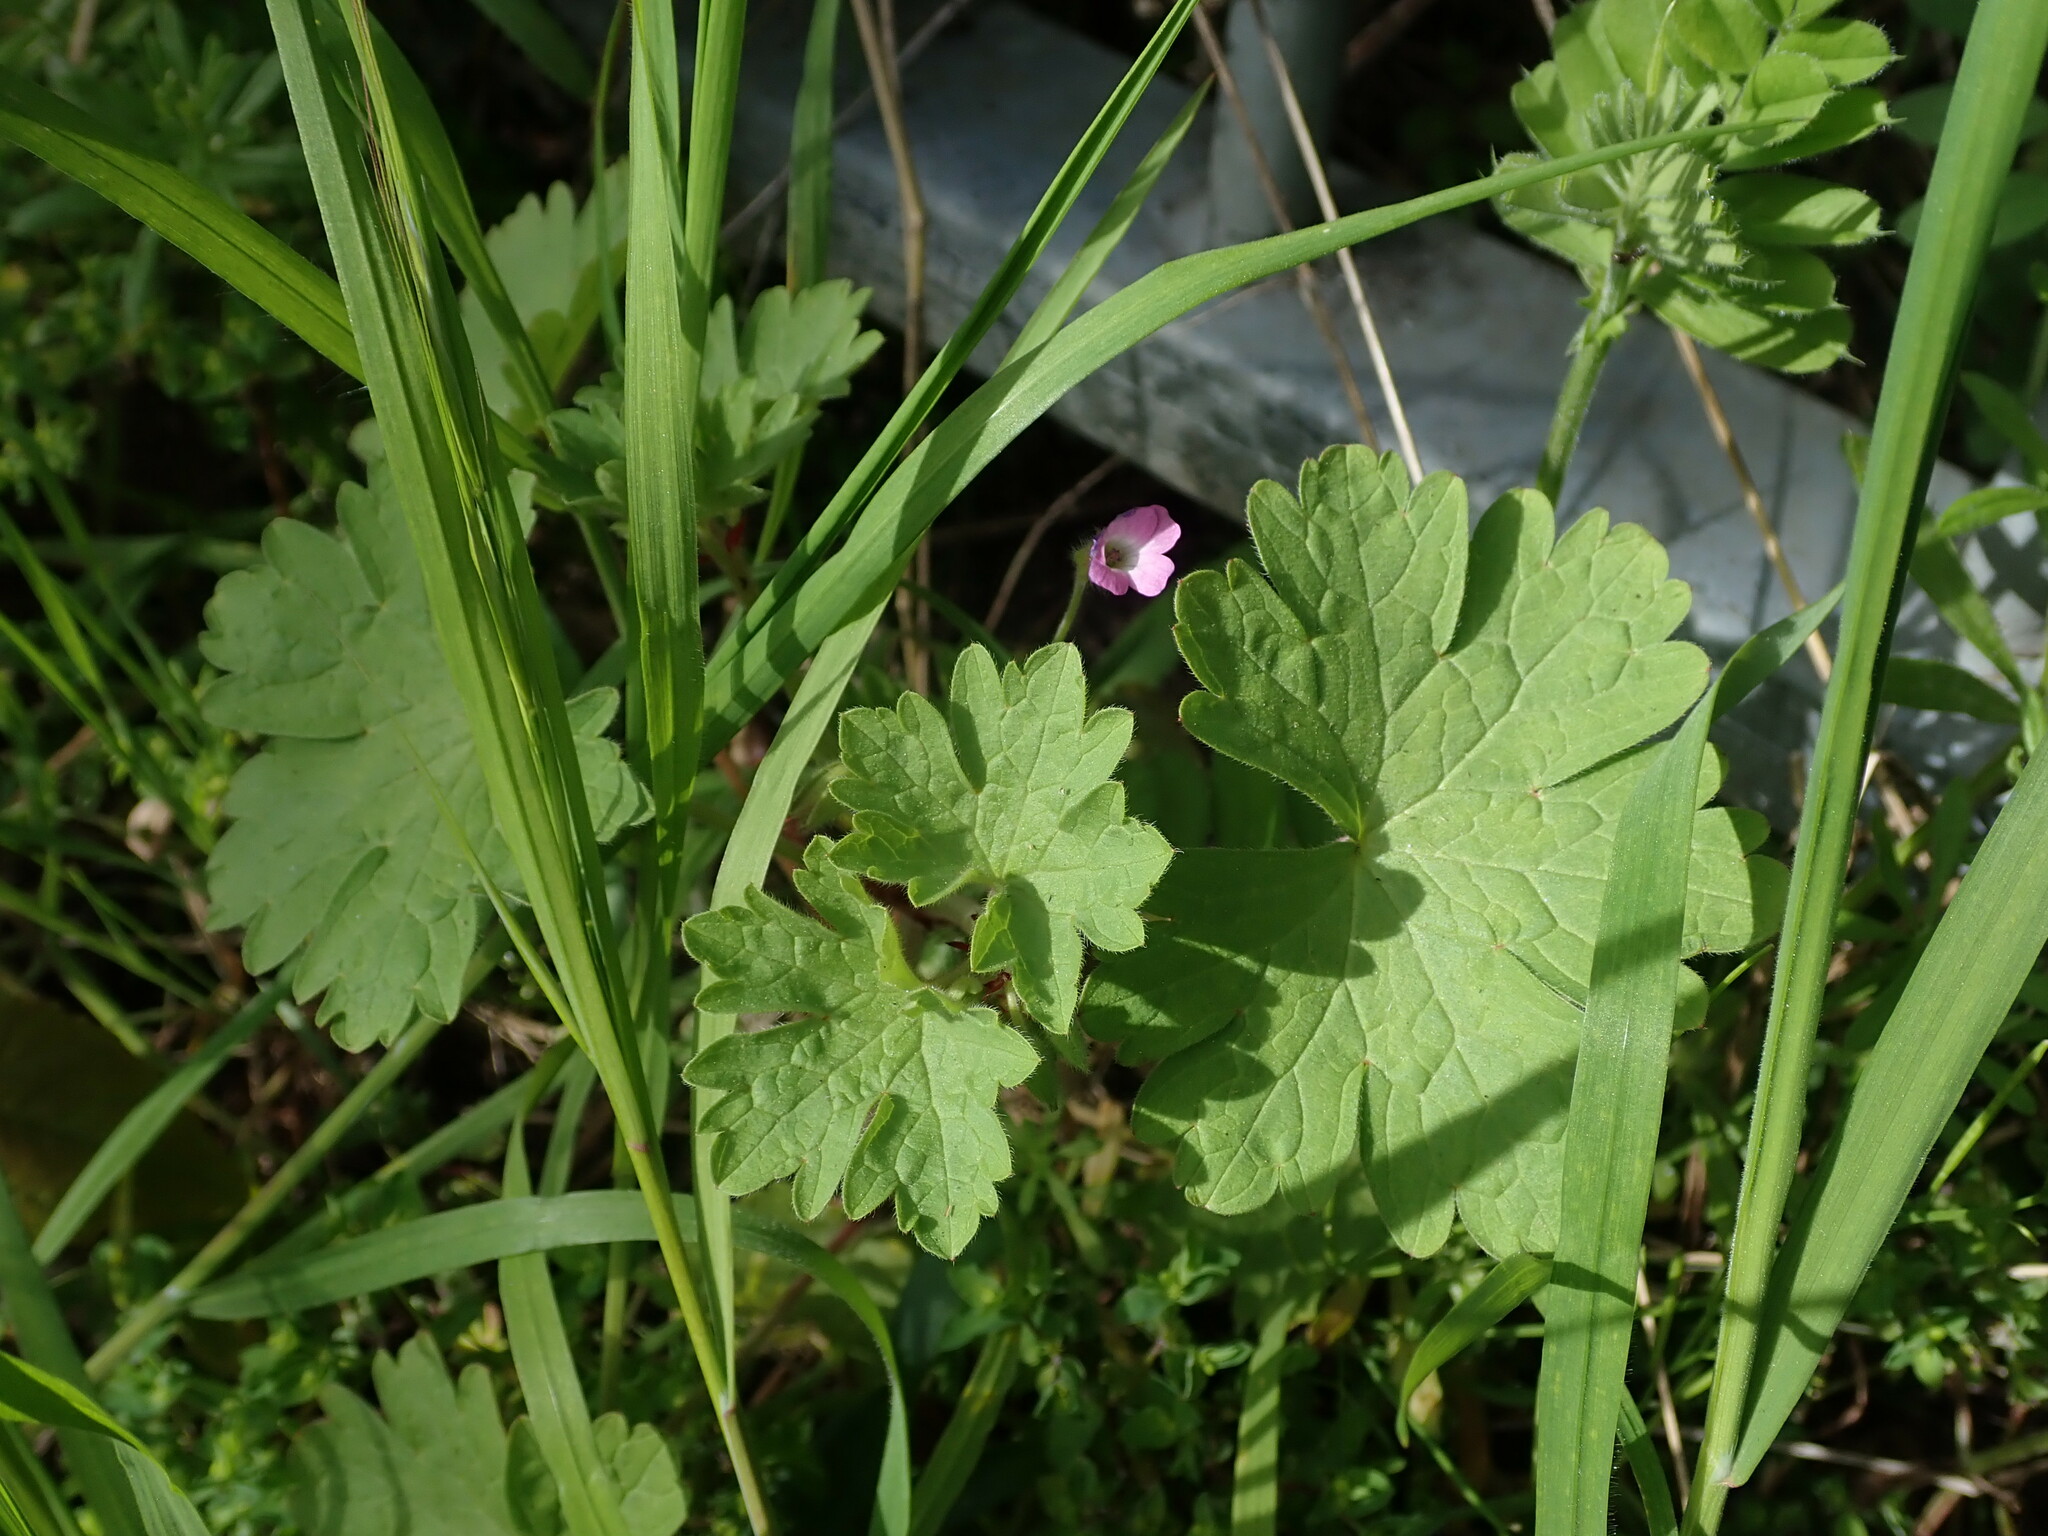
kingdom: Plantae
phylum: Tracheophyta
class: Magnoliopsida
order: Geraniales
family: Geraniaceae
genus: Geranium
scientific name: Geranium rotundifolium
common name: Round-leaved crane's-bill
